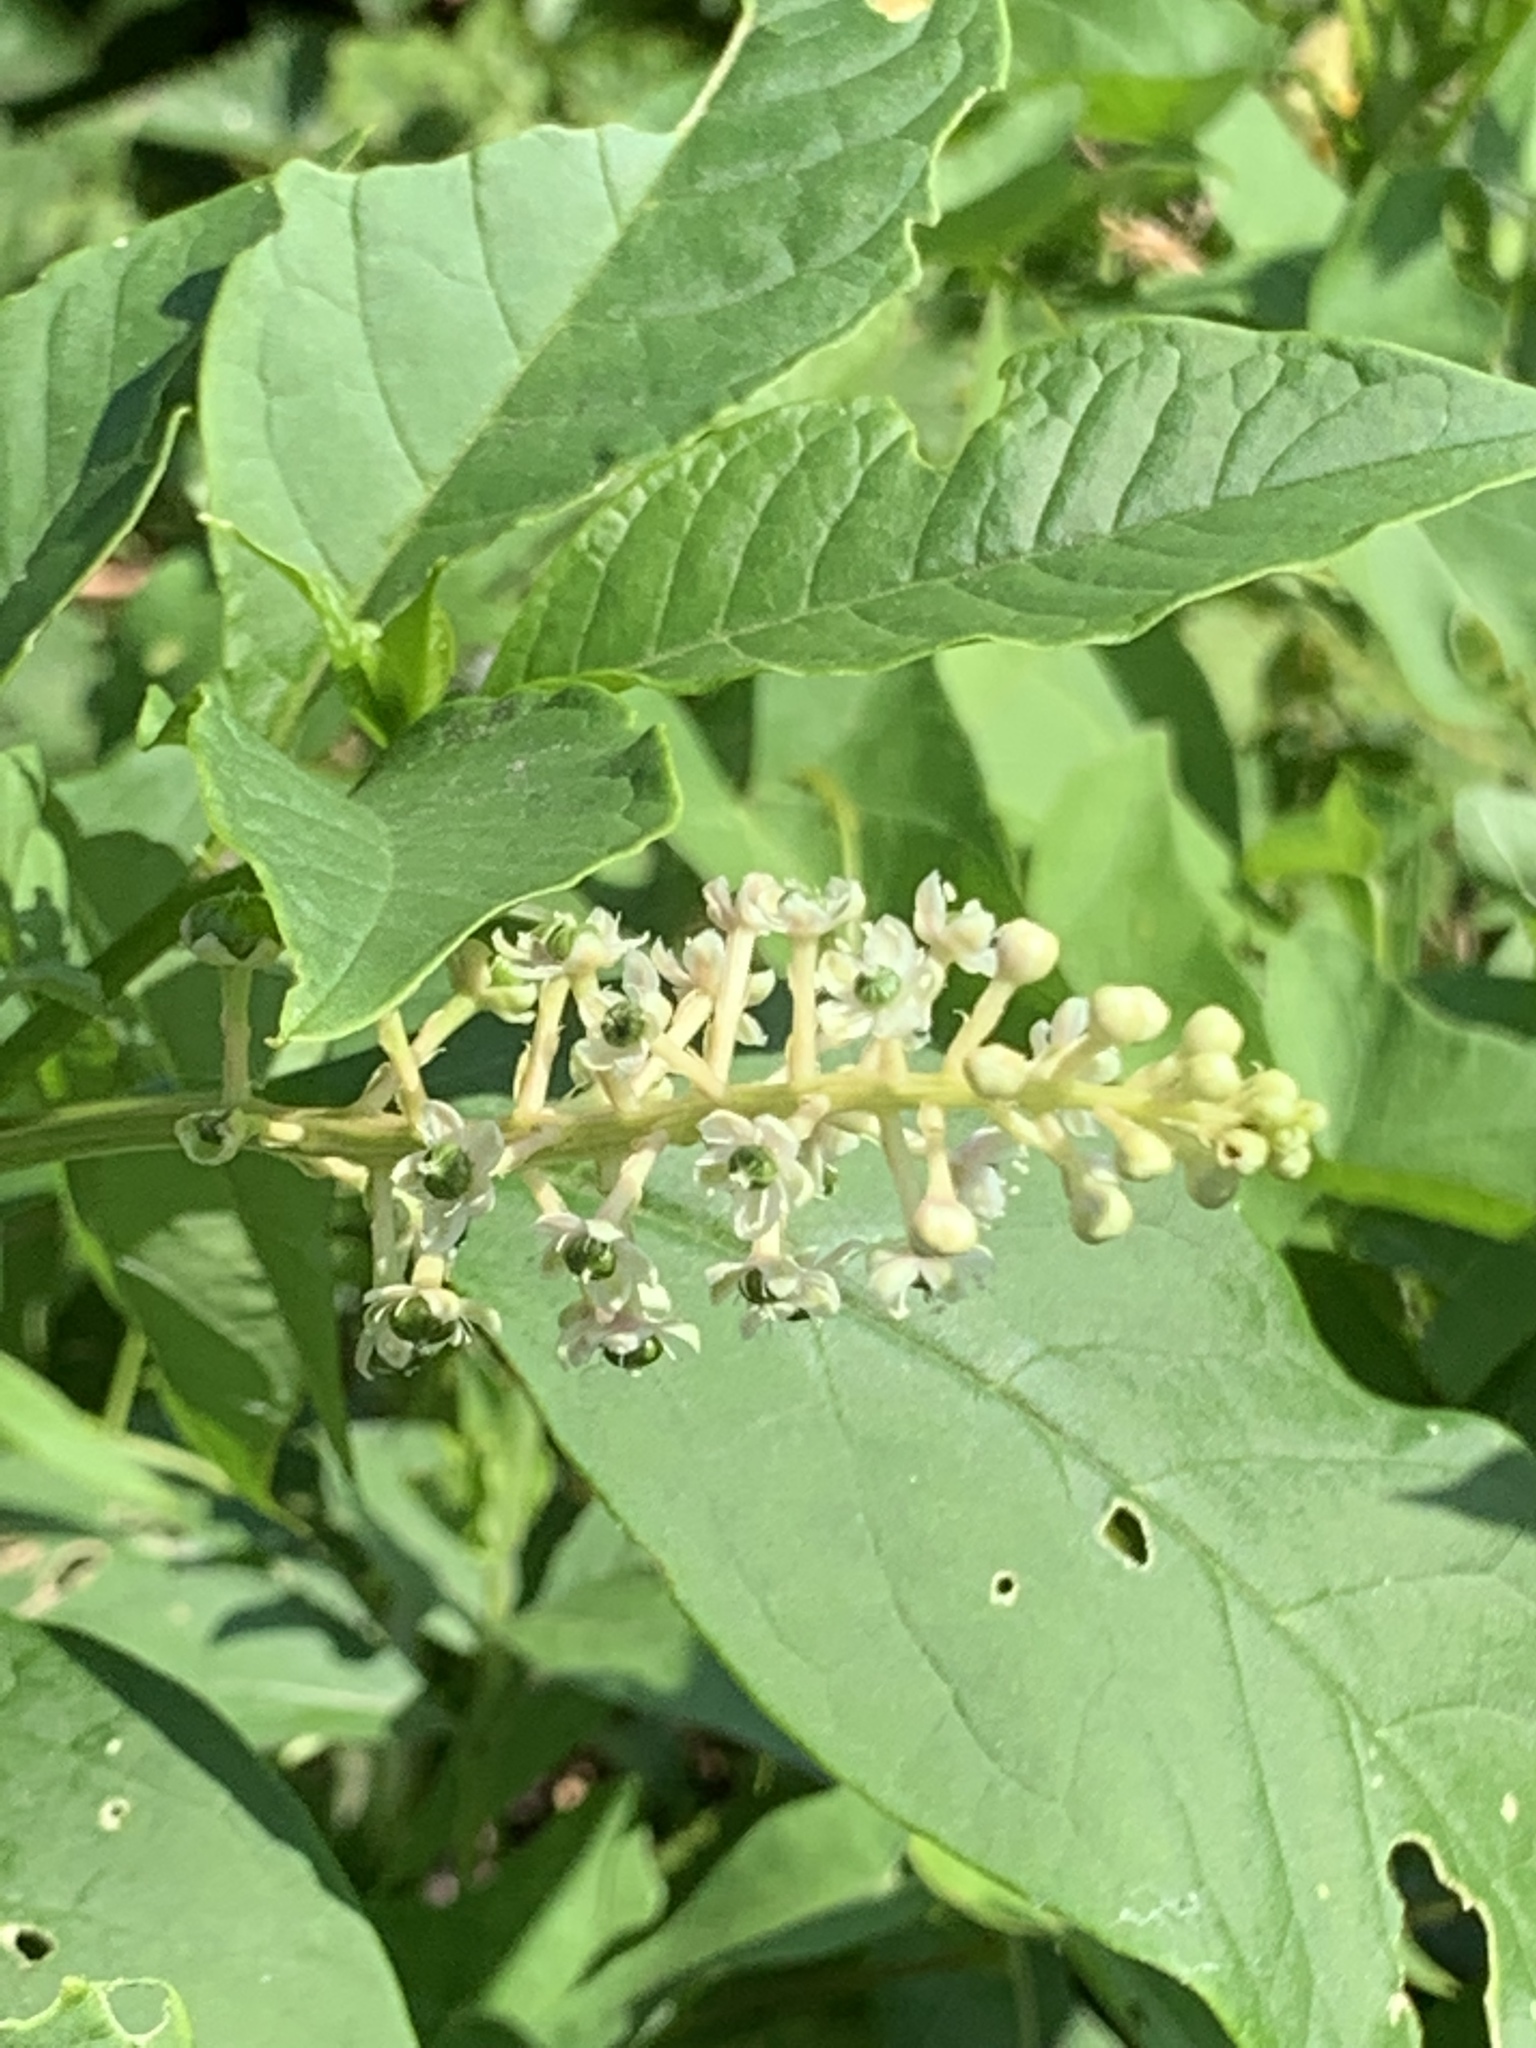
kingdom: Plantae
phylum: Tracheophyta
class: Magnoliopsida
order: Caryophyllales
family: Phytolaccaceae
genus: Phytolacca
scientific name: Phytolacca americana
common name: American pokeweed
